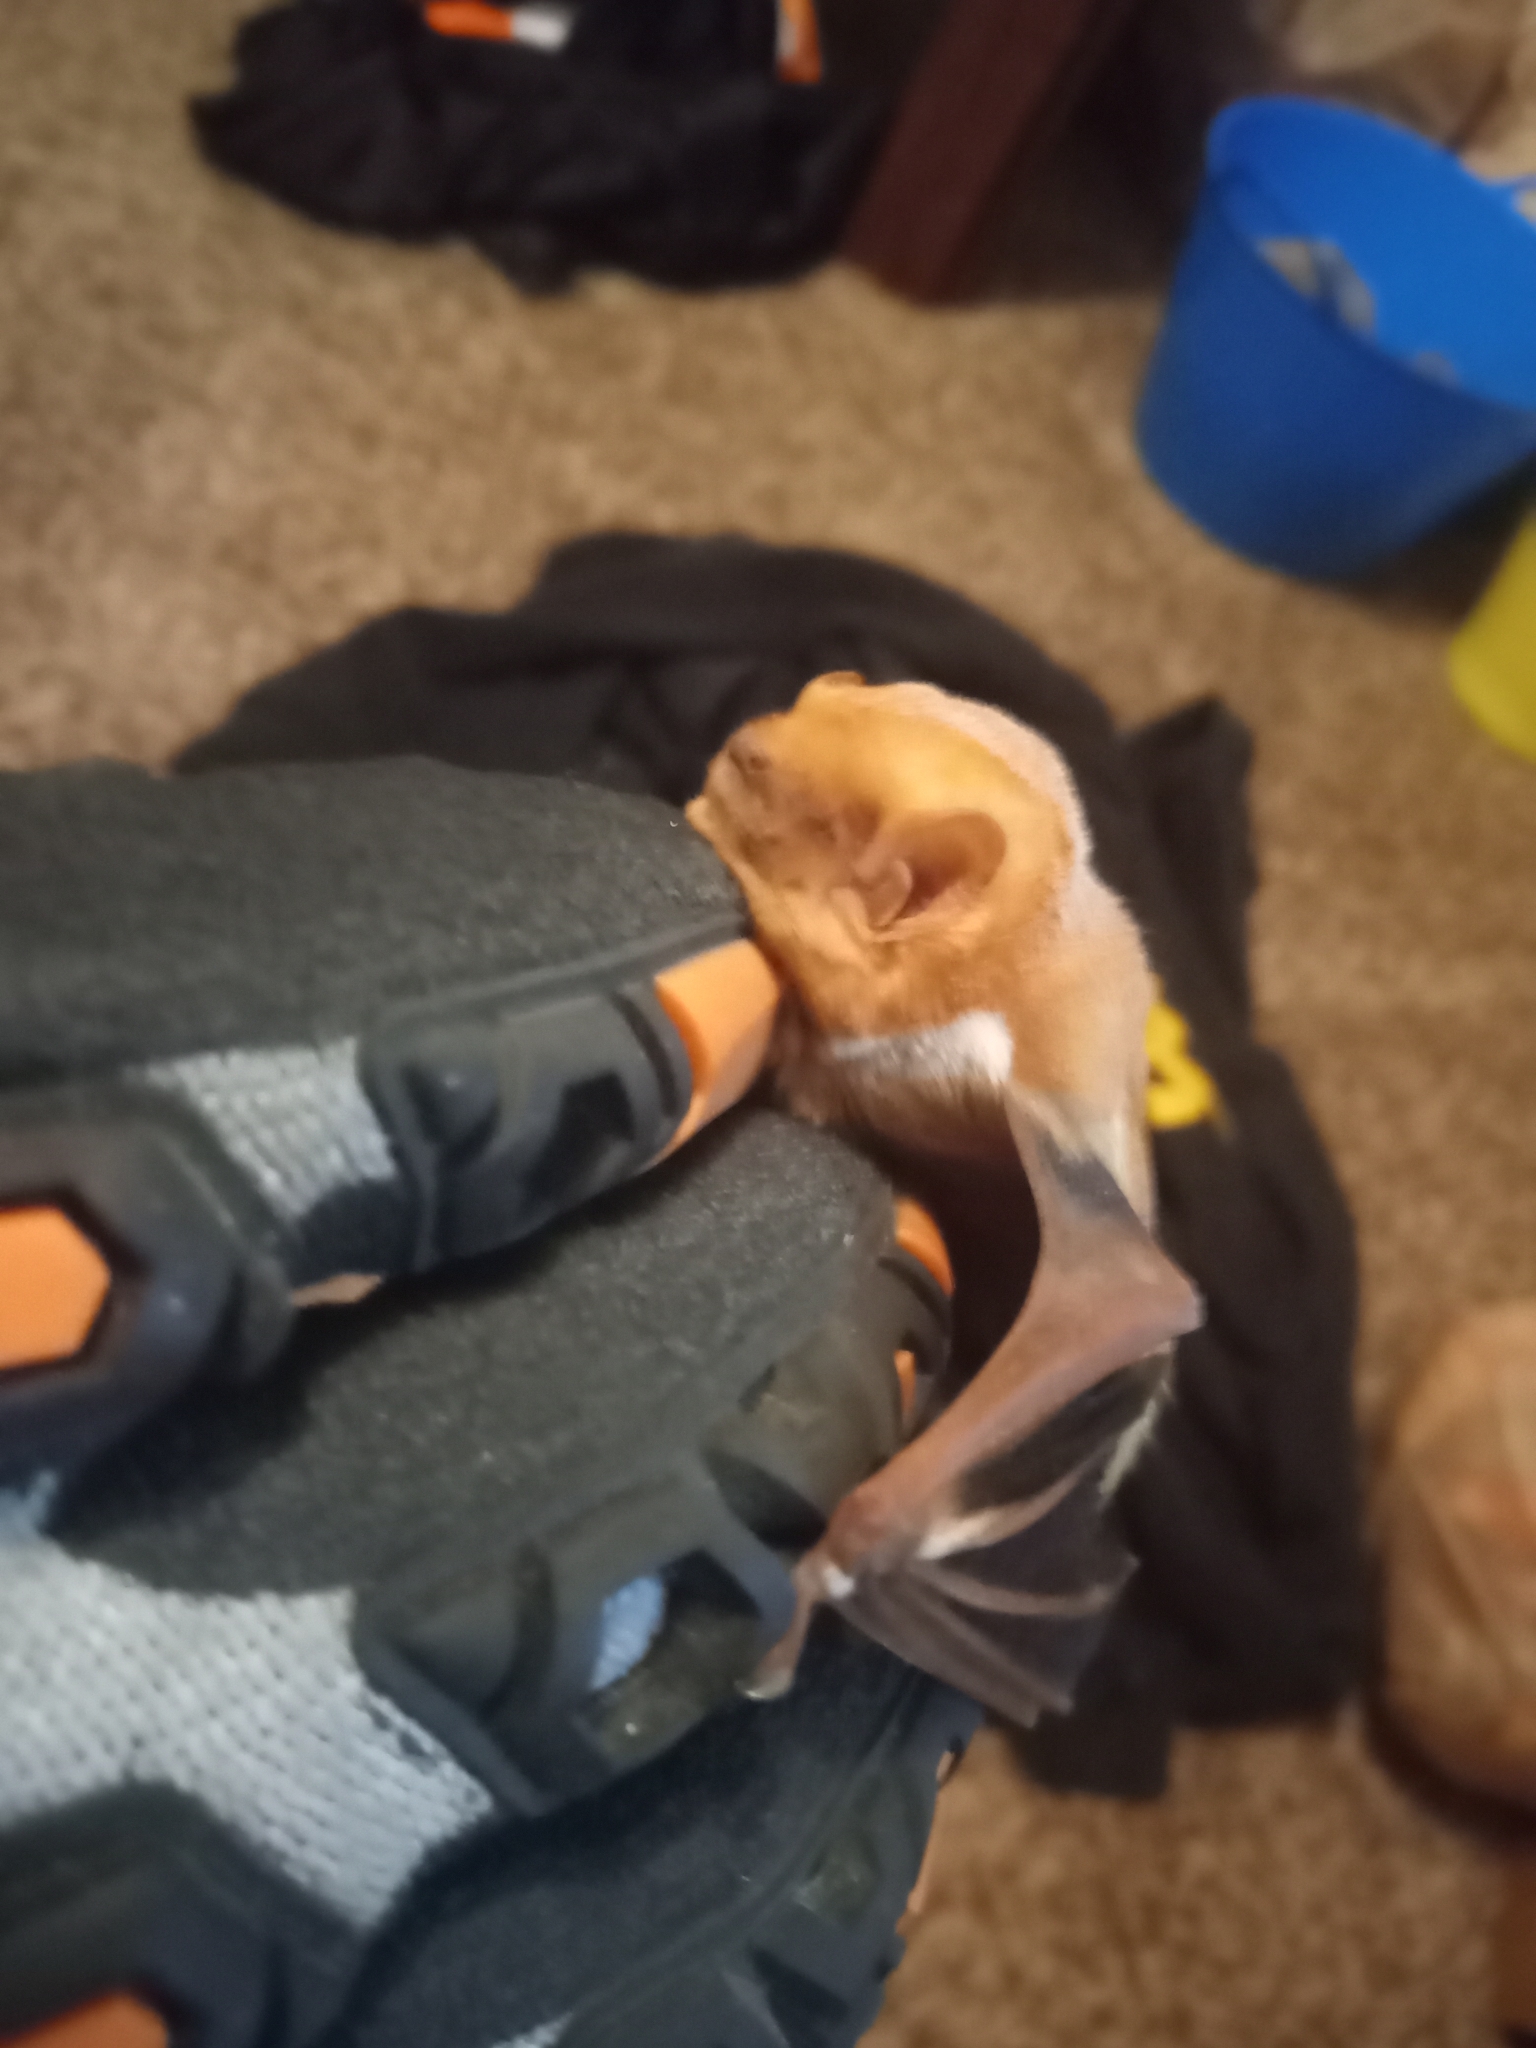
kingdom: Animalia
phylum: Chordata
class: Mammalia
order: Chiroptera
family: Vespertilionidae
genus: Lasiurus
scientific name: Lasiurus borealis
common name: Eastern red bat
